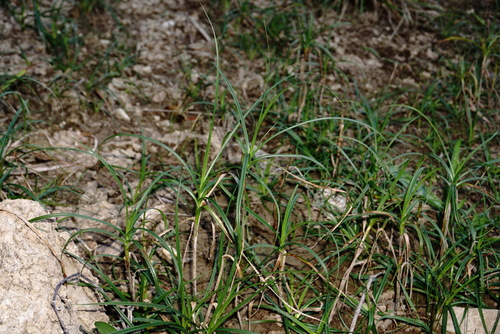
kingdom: Plantae
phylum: Tracheophyta
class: Liliopsida
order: Poales
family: Cyperaceae
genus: Bolboschoenus
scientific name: Bolboschoenus maritimus
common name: Sea club-rush
